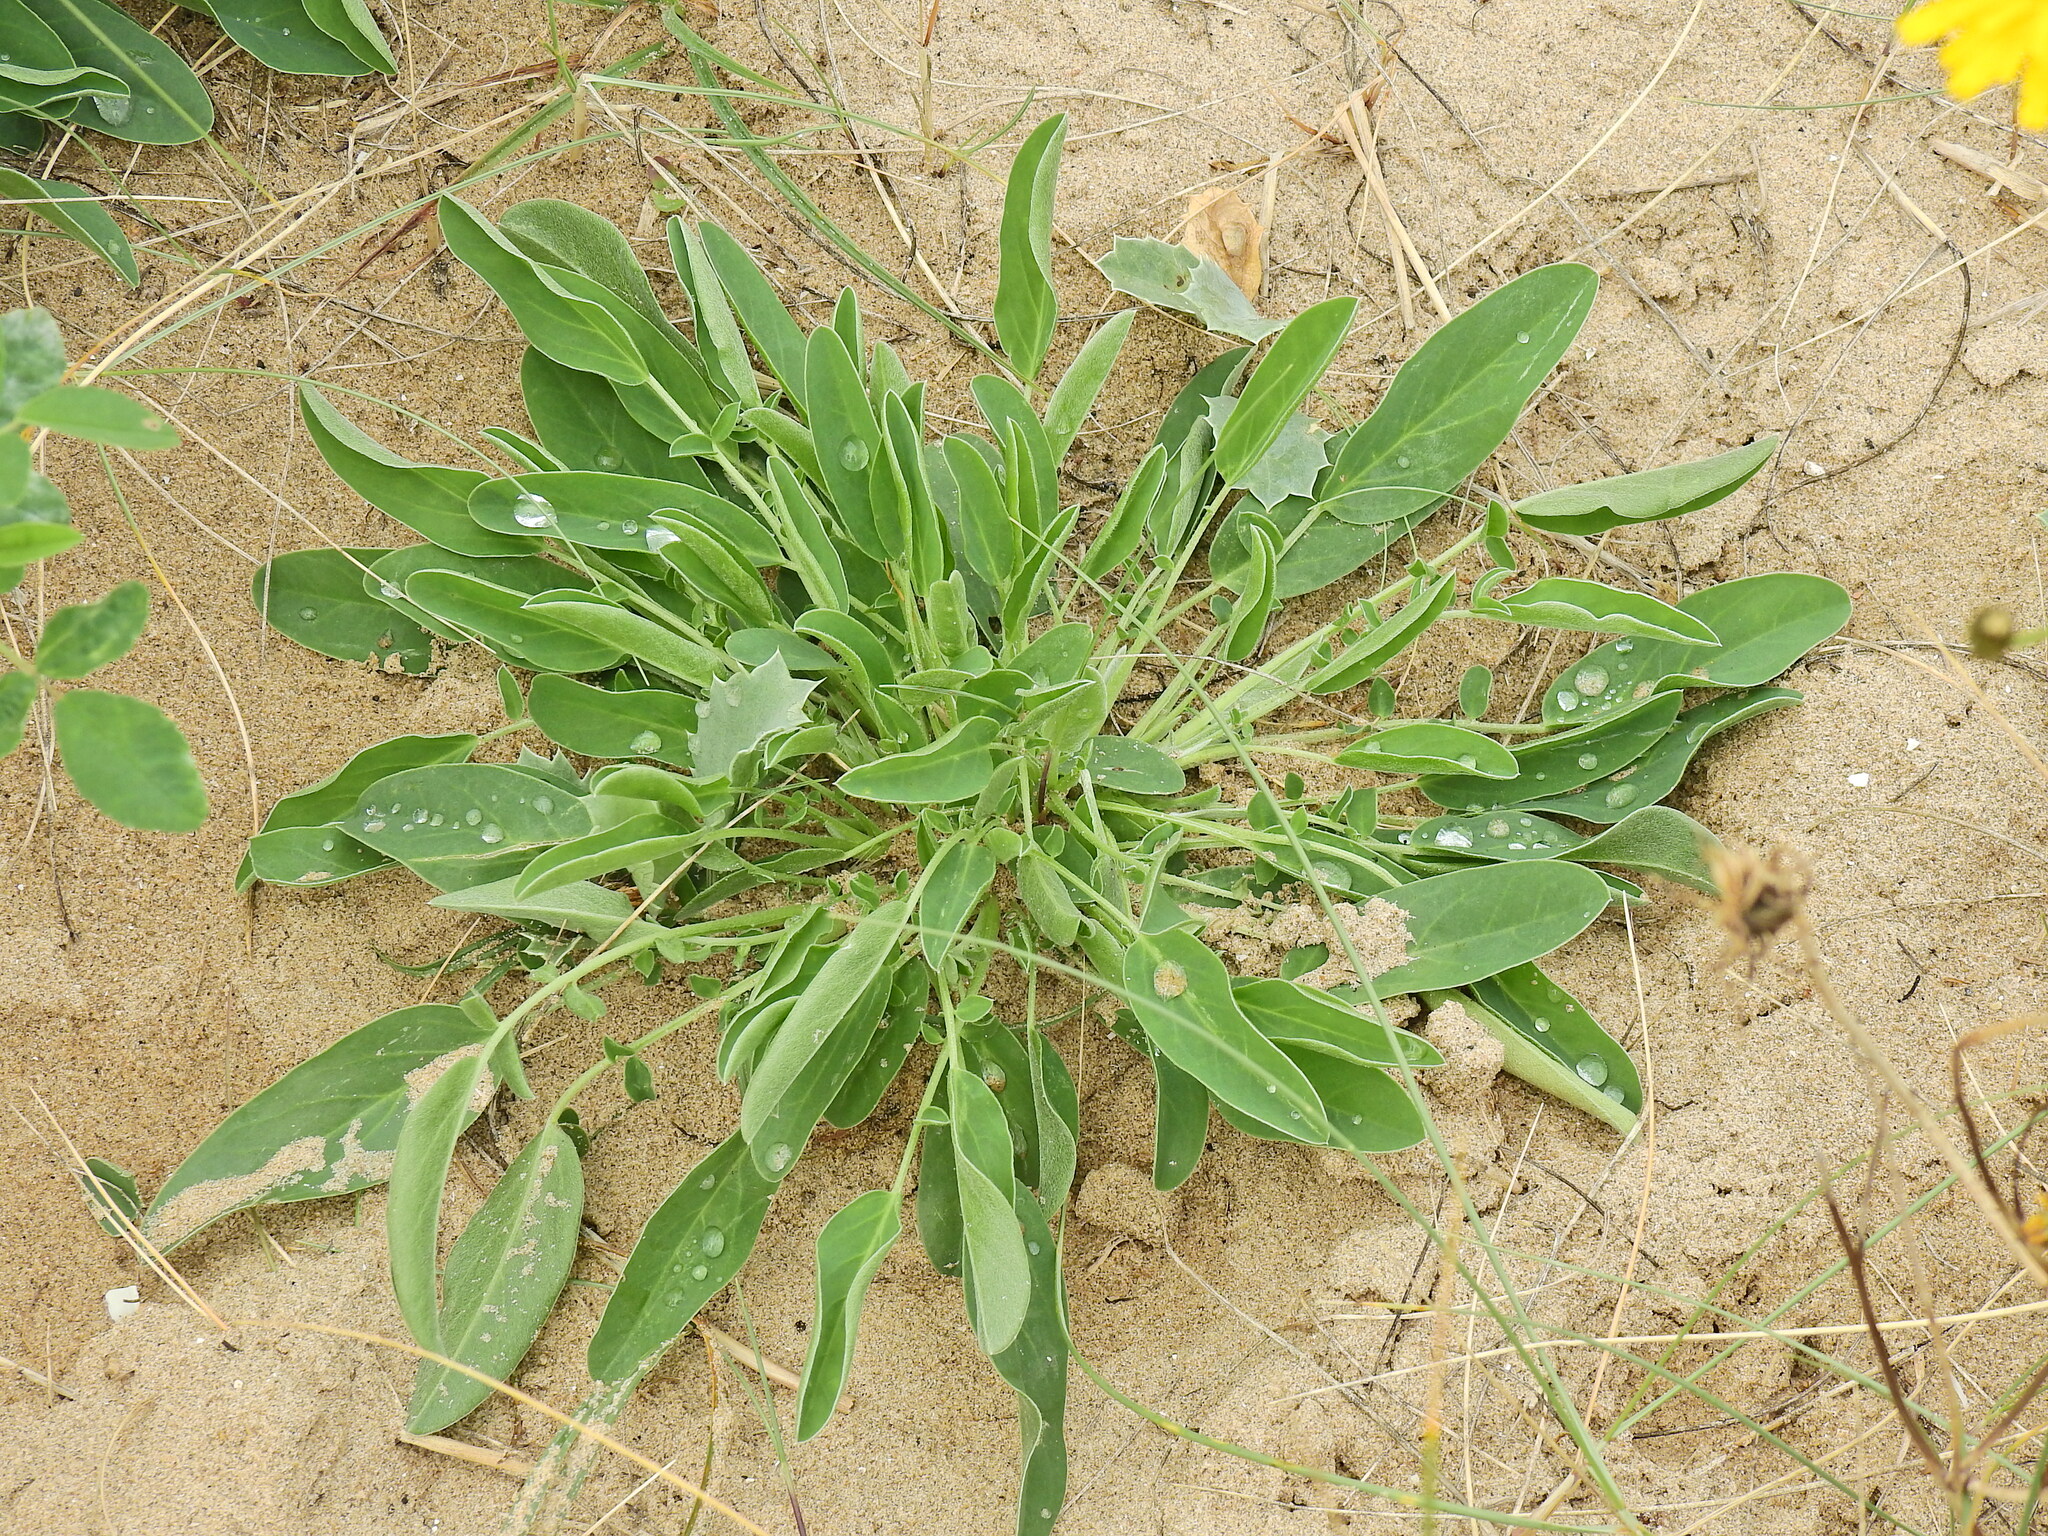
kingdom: Plantae
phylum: Tracheophyta
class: Magnoliopsida
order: Fabales
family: Fabaceae
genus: Anthyllis
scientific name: Anthyllis vulneraria
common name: Kidney vetch
